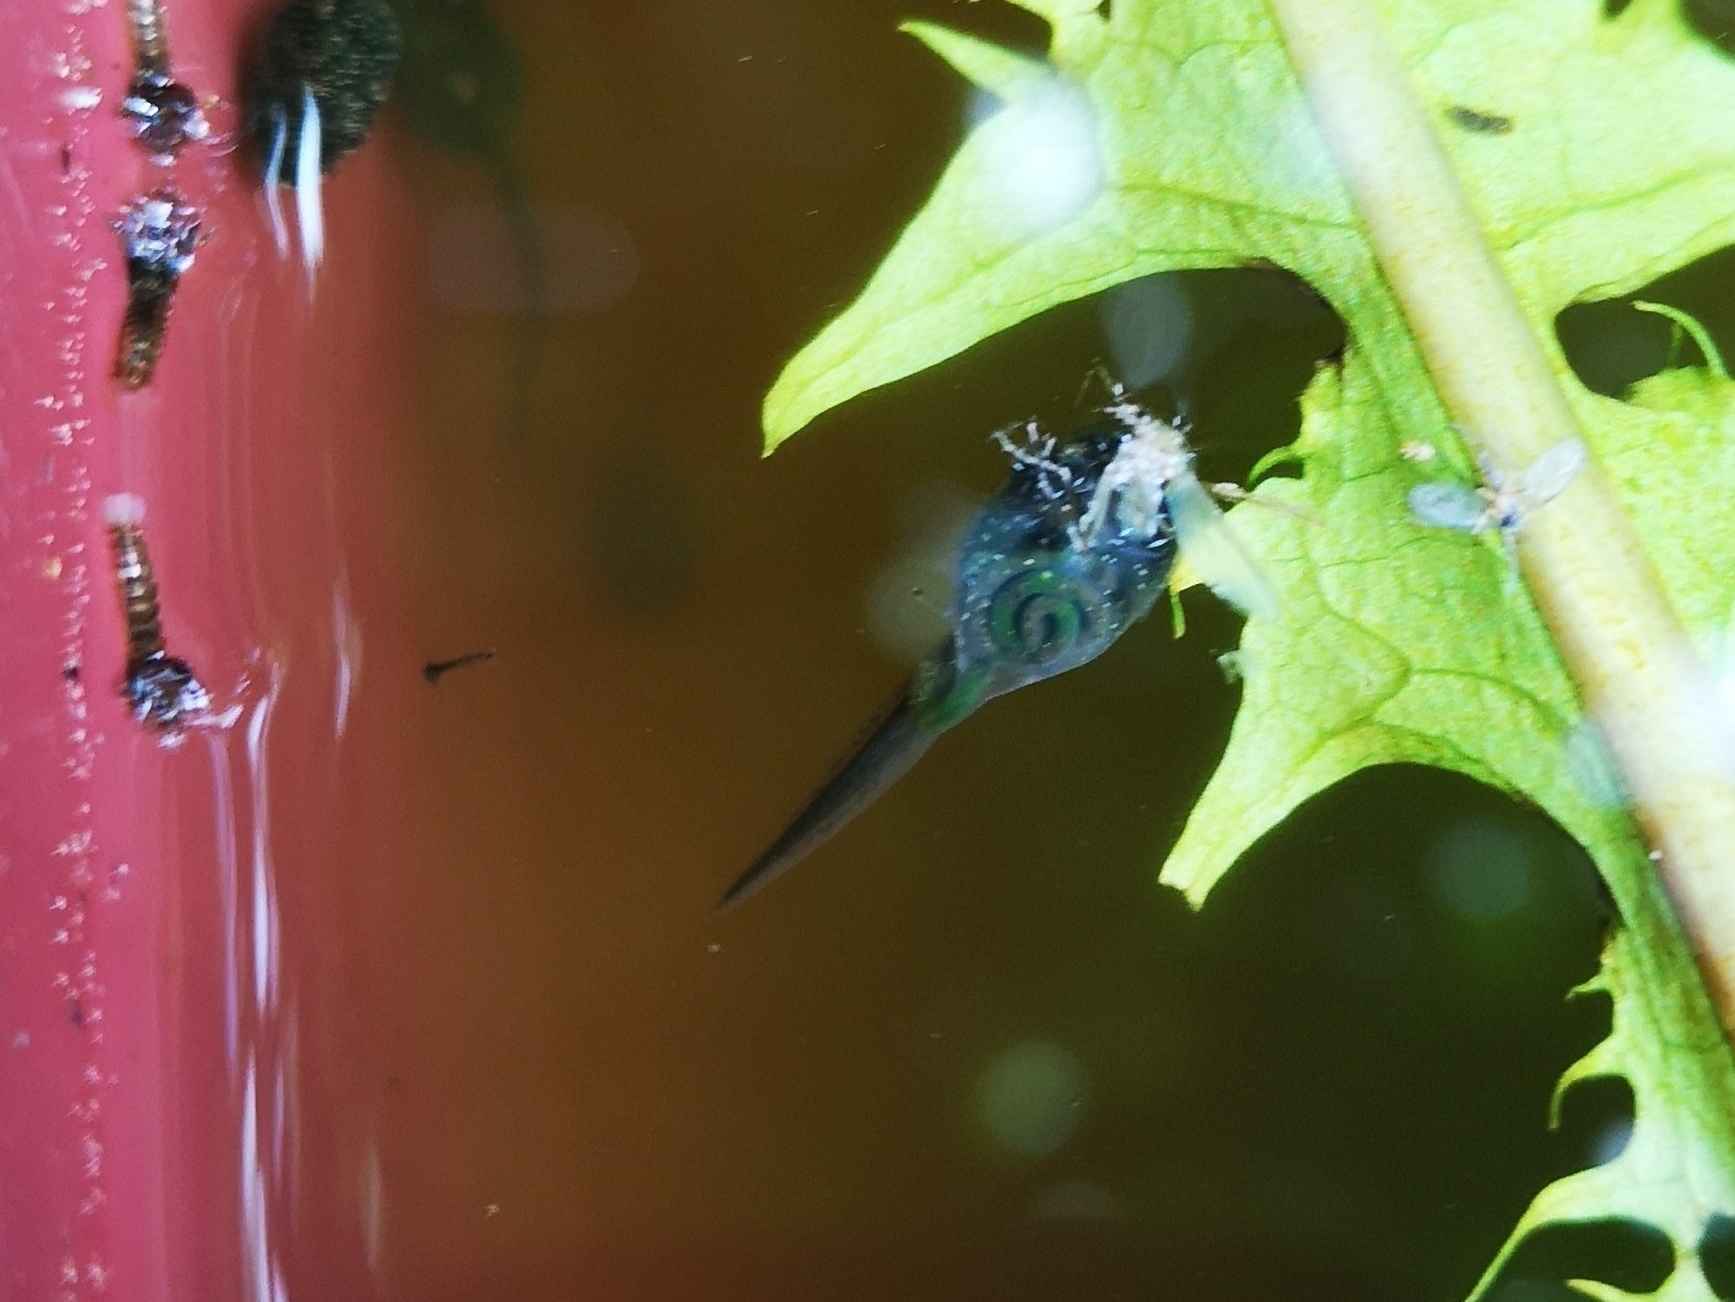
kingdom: Animalia
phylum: Chordata
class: Amphibia
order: Anura
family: Ranidae
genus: Rana
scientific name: Rana latastei
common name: Italian agile frog
